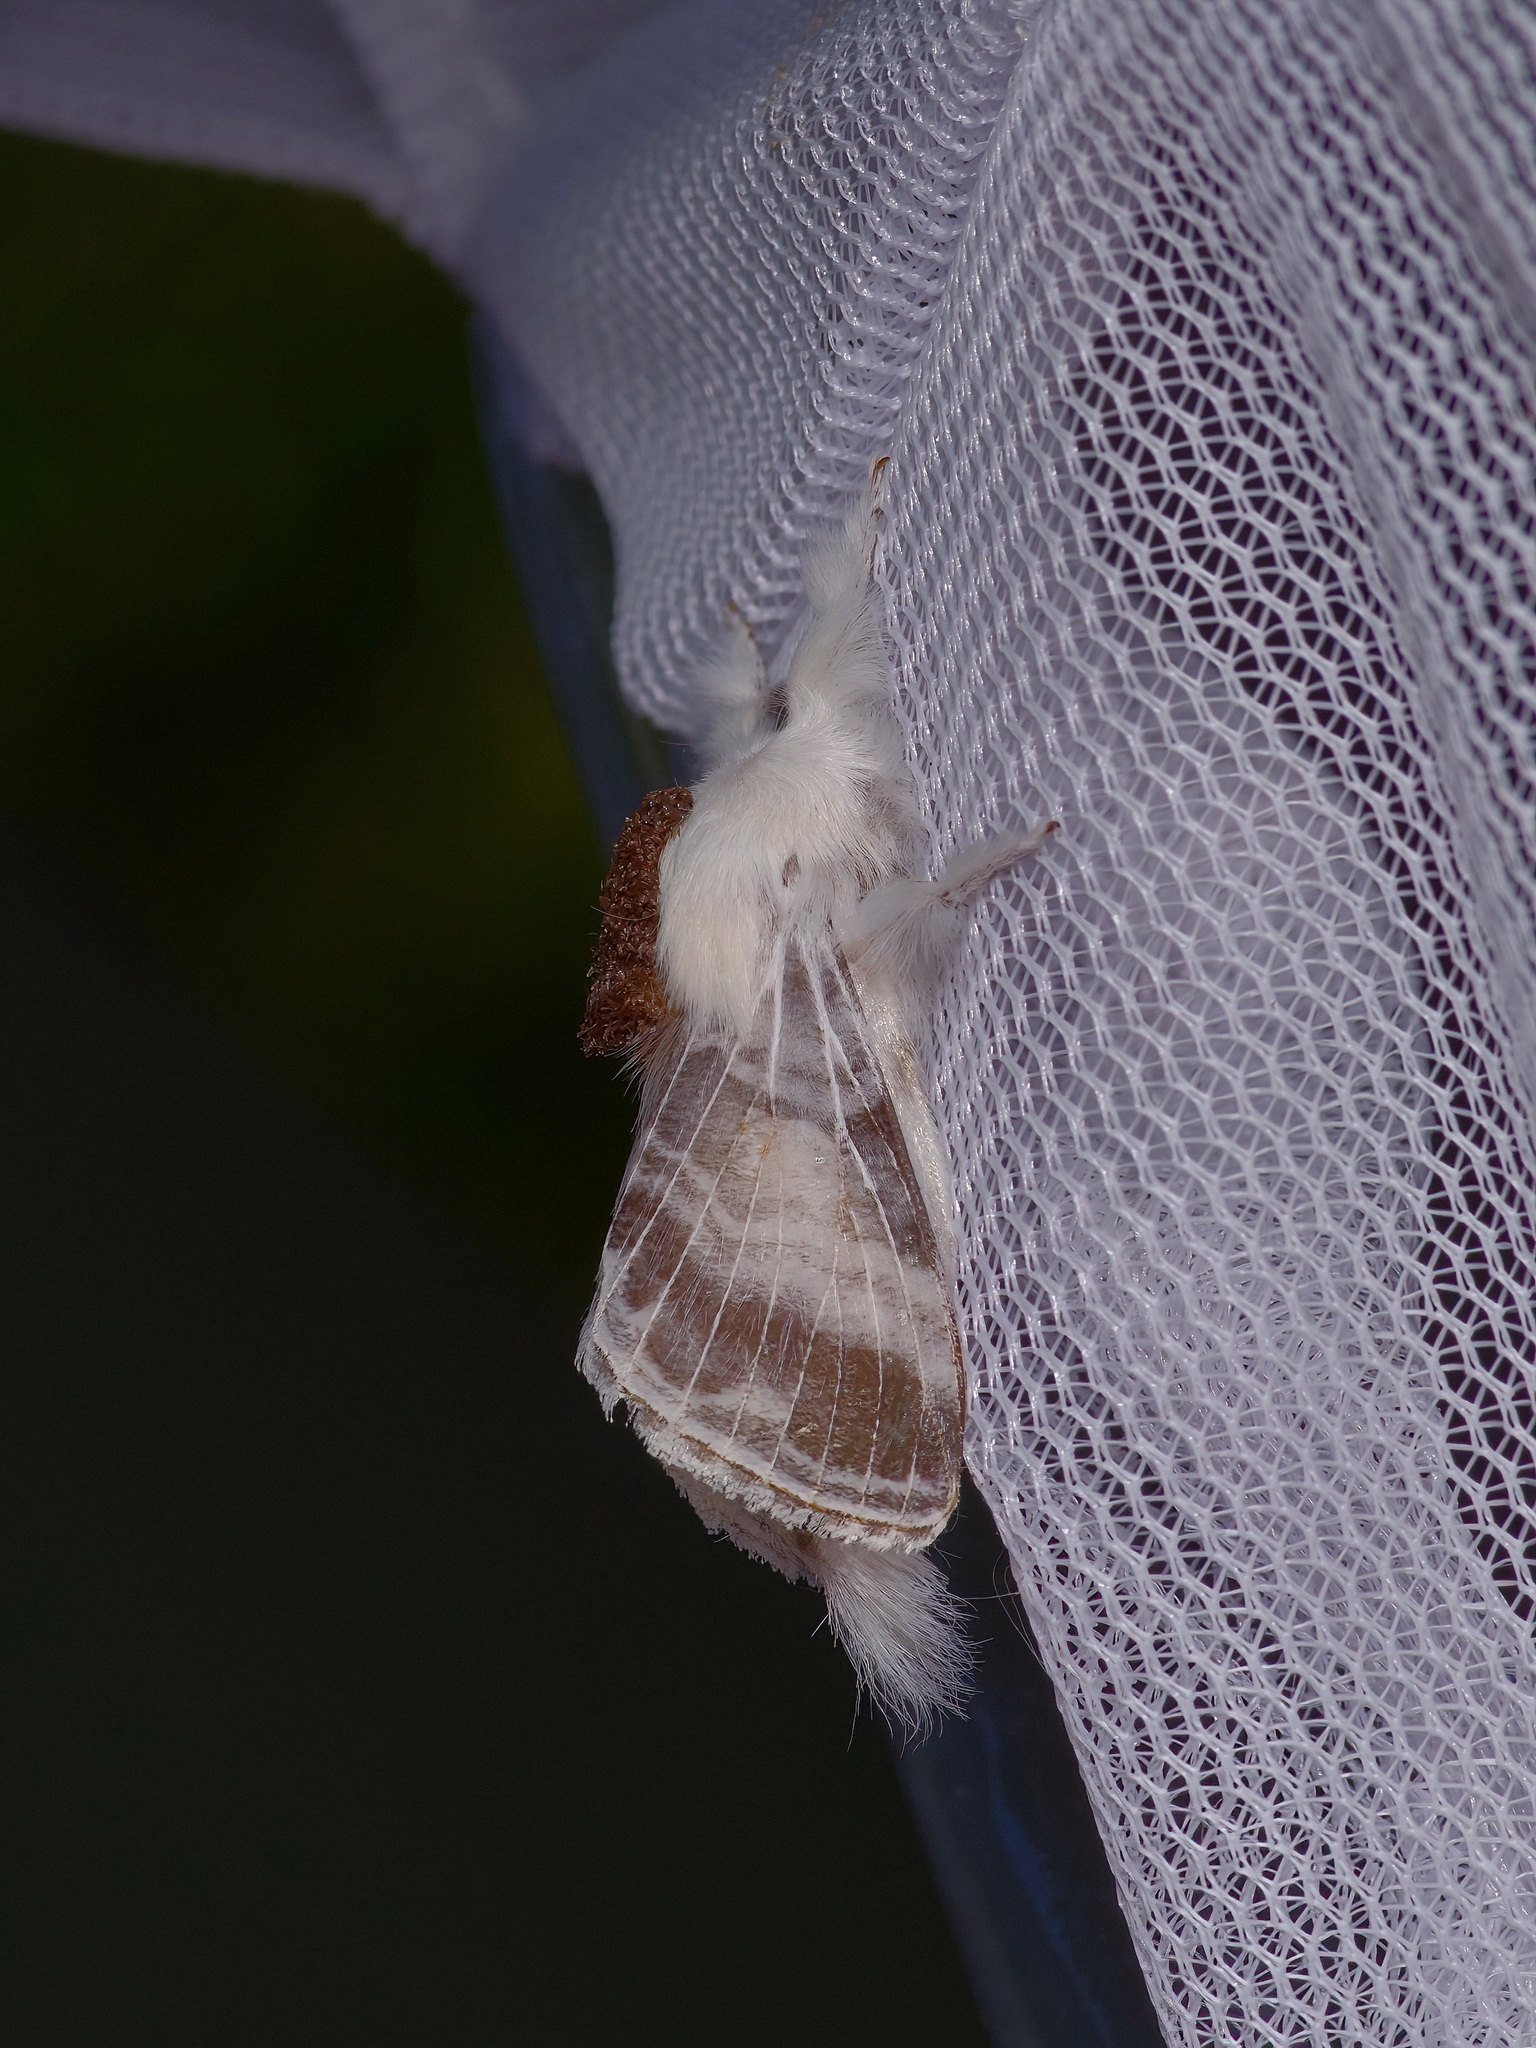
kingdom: Animalia
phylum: Arthropoda
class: Insecta
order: Lepidoptera
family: Lasiocampidae
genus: Tolype
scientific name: Tolype velleda
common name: Large tolype moth
